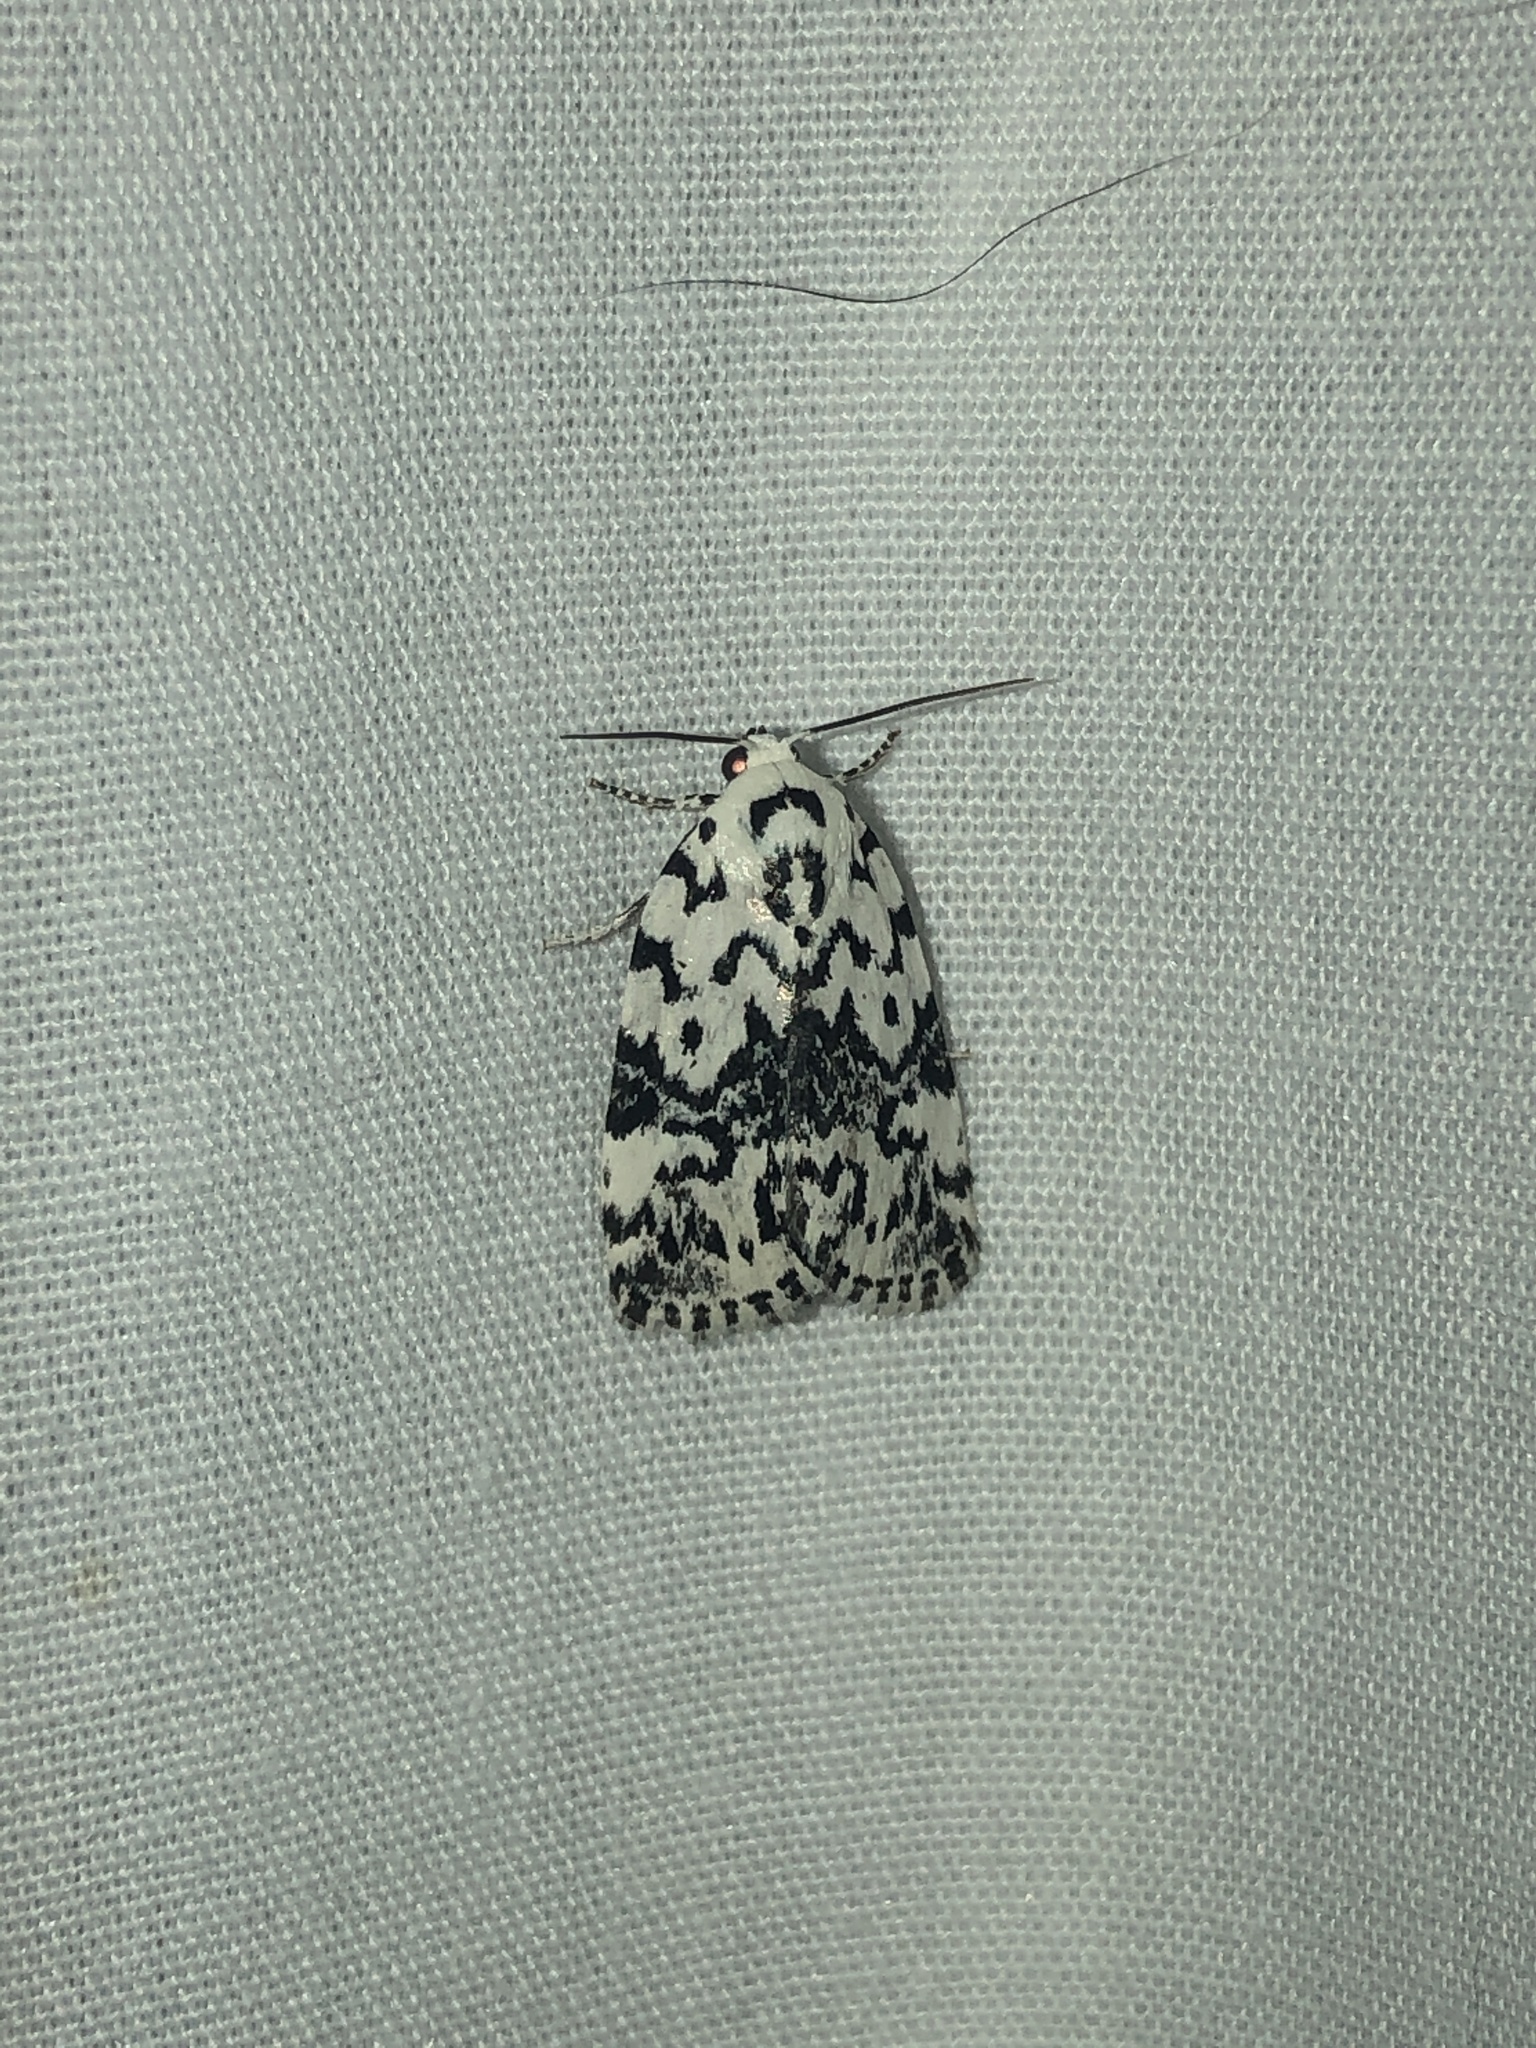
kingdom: Animalia
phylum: Arthropoda
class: Insecta
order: Lepidoptera
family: Noctuidae
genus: Polygrammate
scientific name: Polygrammate hebraeicum
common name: Hebrew moth
